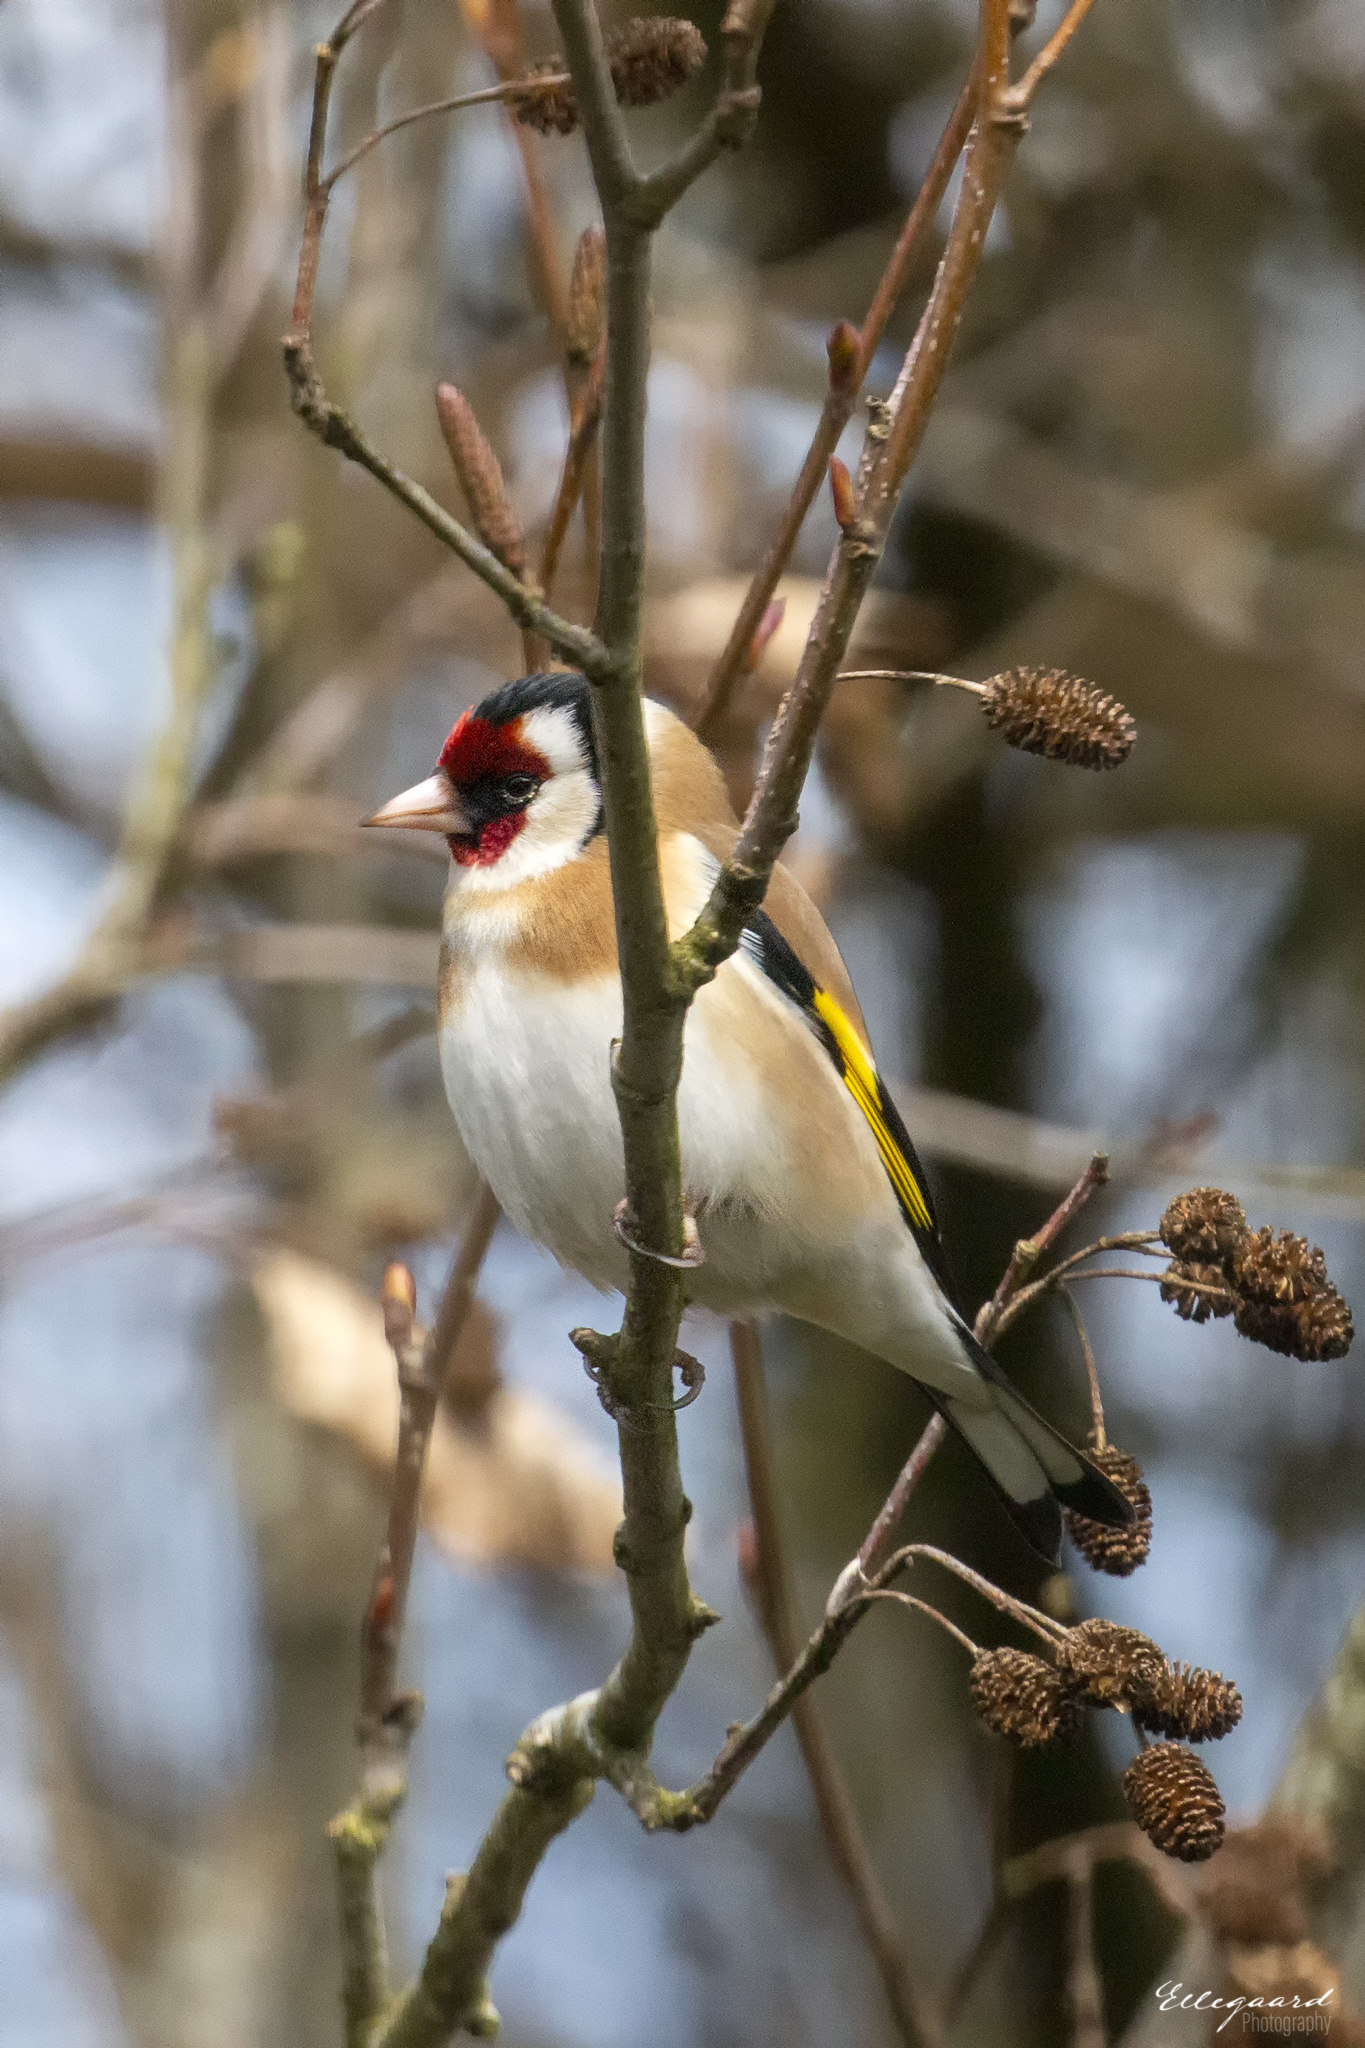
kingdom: Animalia
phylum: Chordata
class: Aves
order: Passeriformes
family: Fringillidae
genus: Carduelis
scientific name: Carduelis carduelis
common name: European goldfinch
